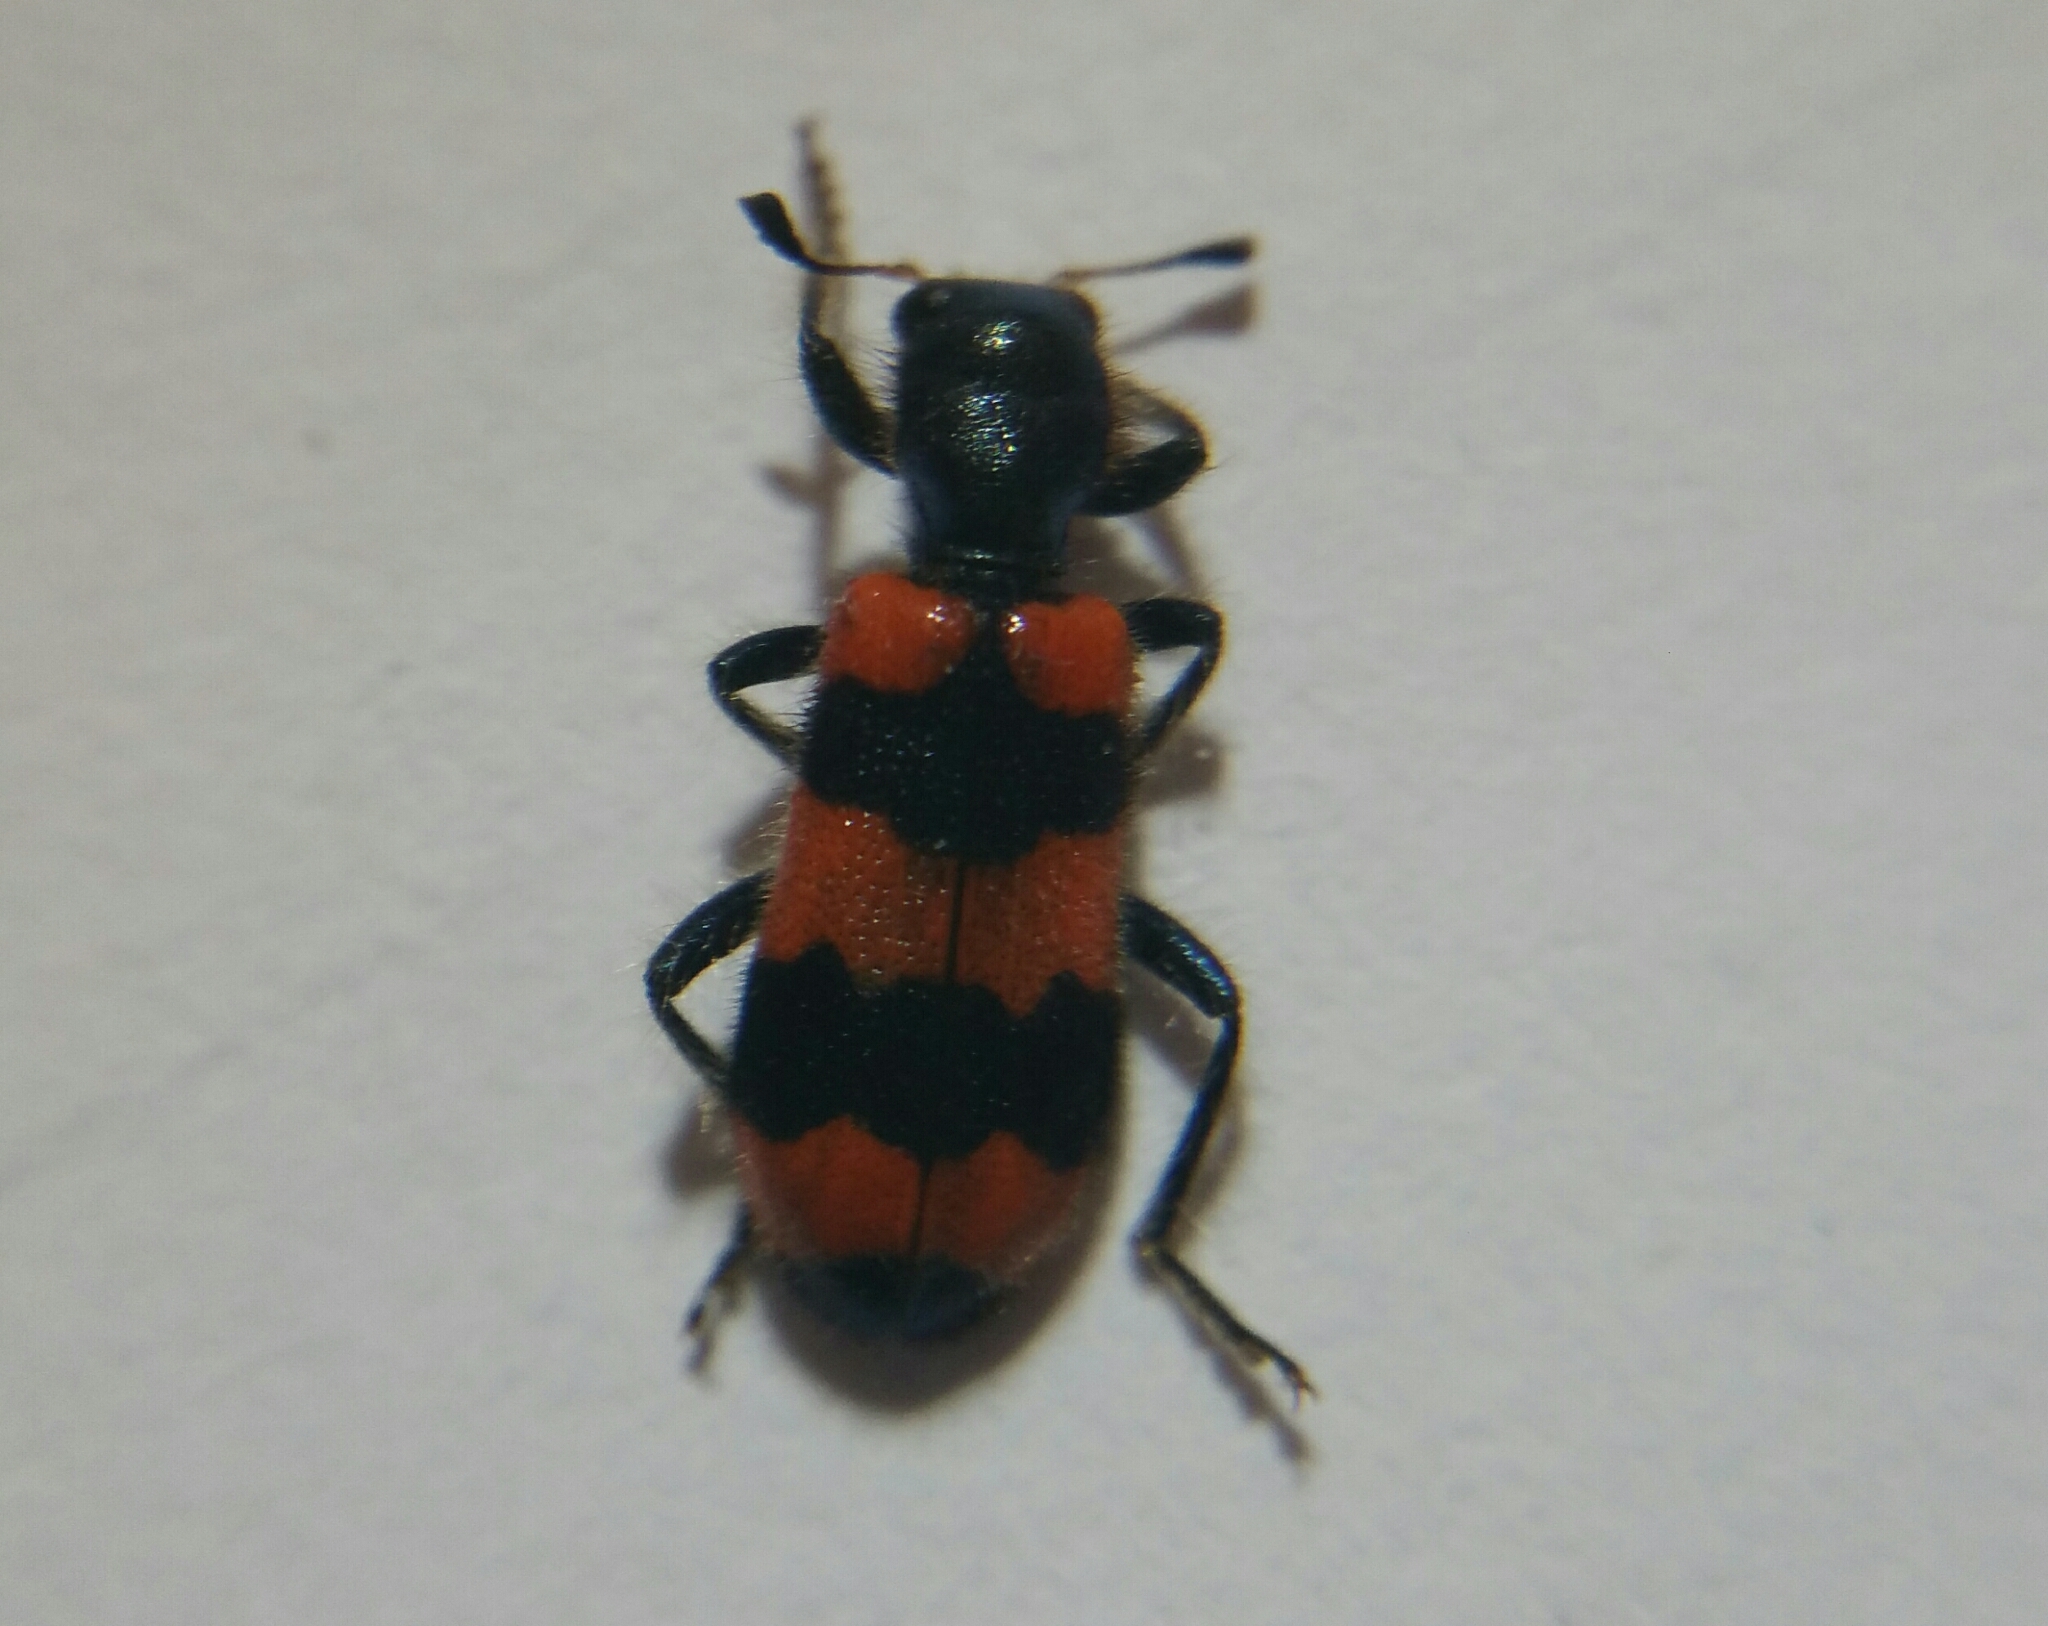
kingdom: Animalia
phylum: Arthropoda
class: Insecta
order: Coleoptera
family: Cleridae
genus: Trichodes
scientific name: Trichodes apiarius
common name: Bee-eating beetle
